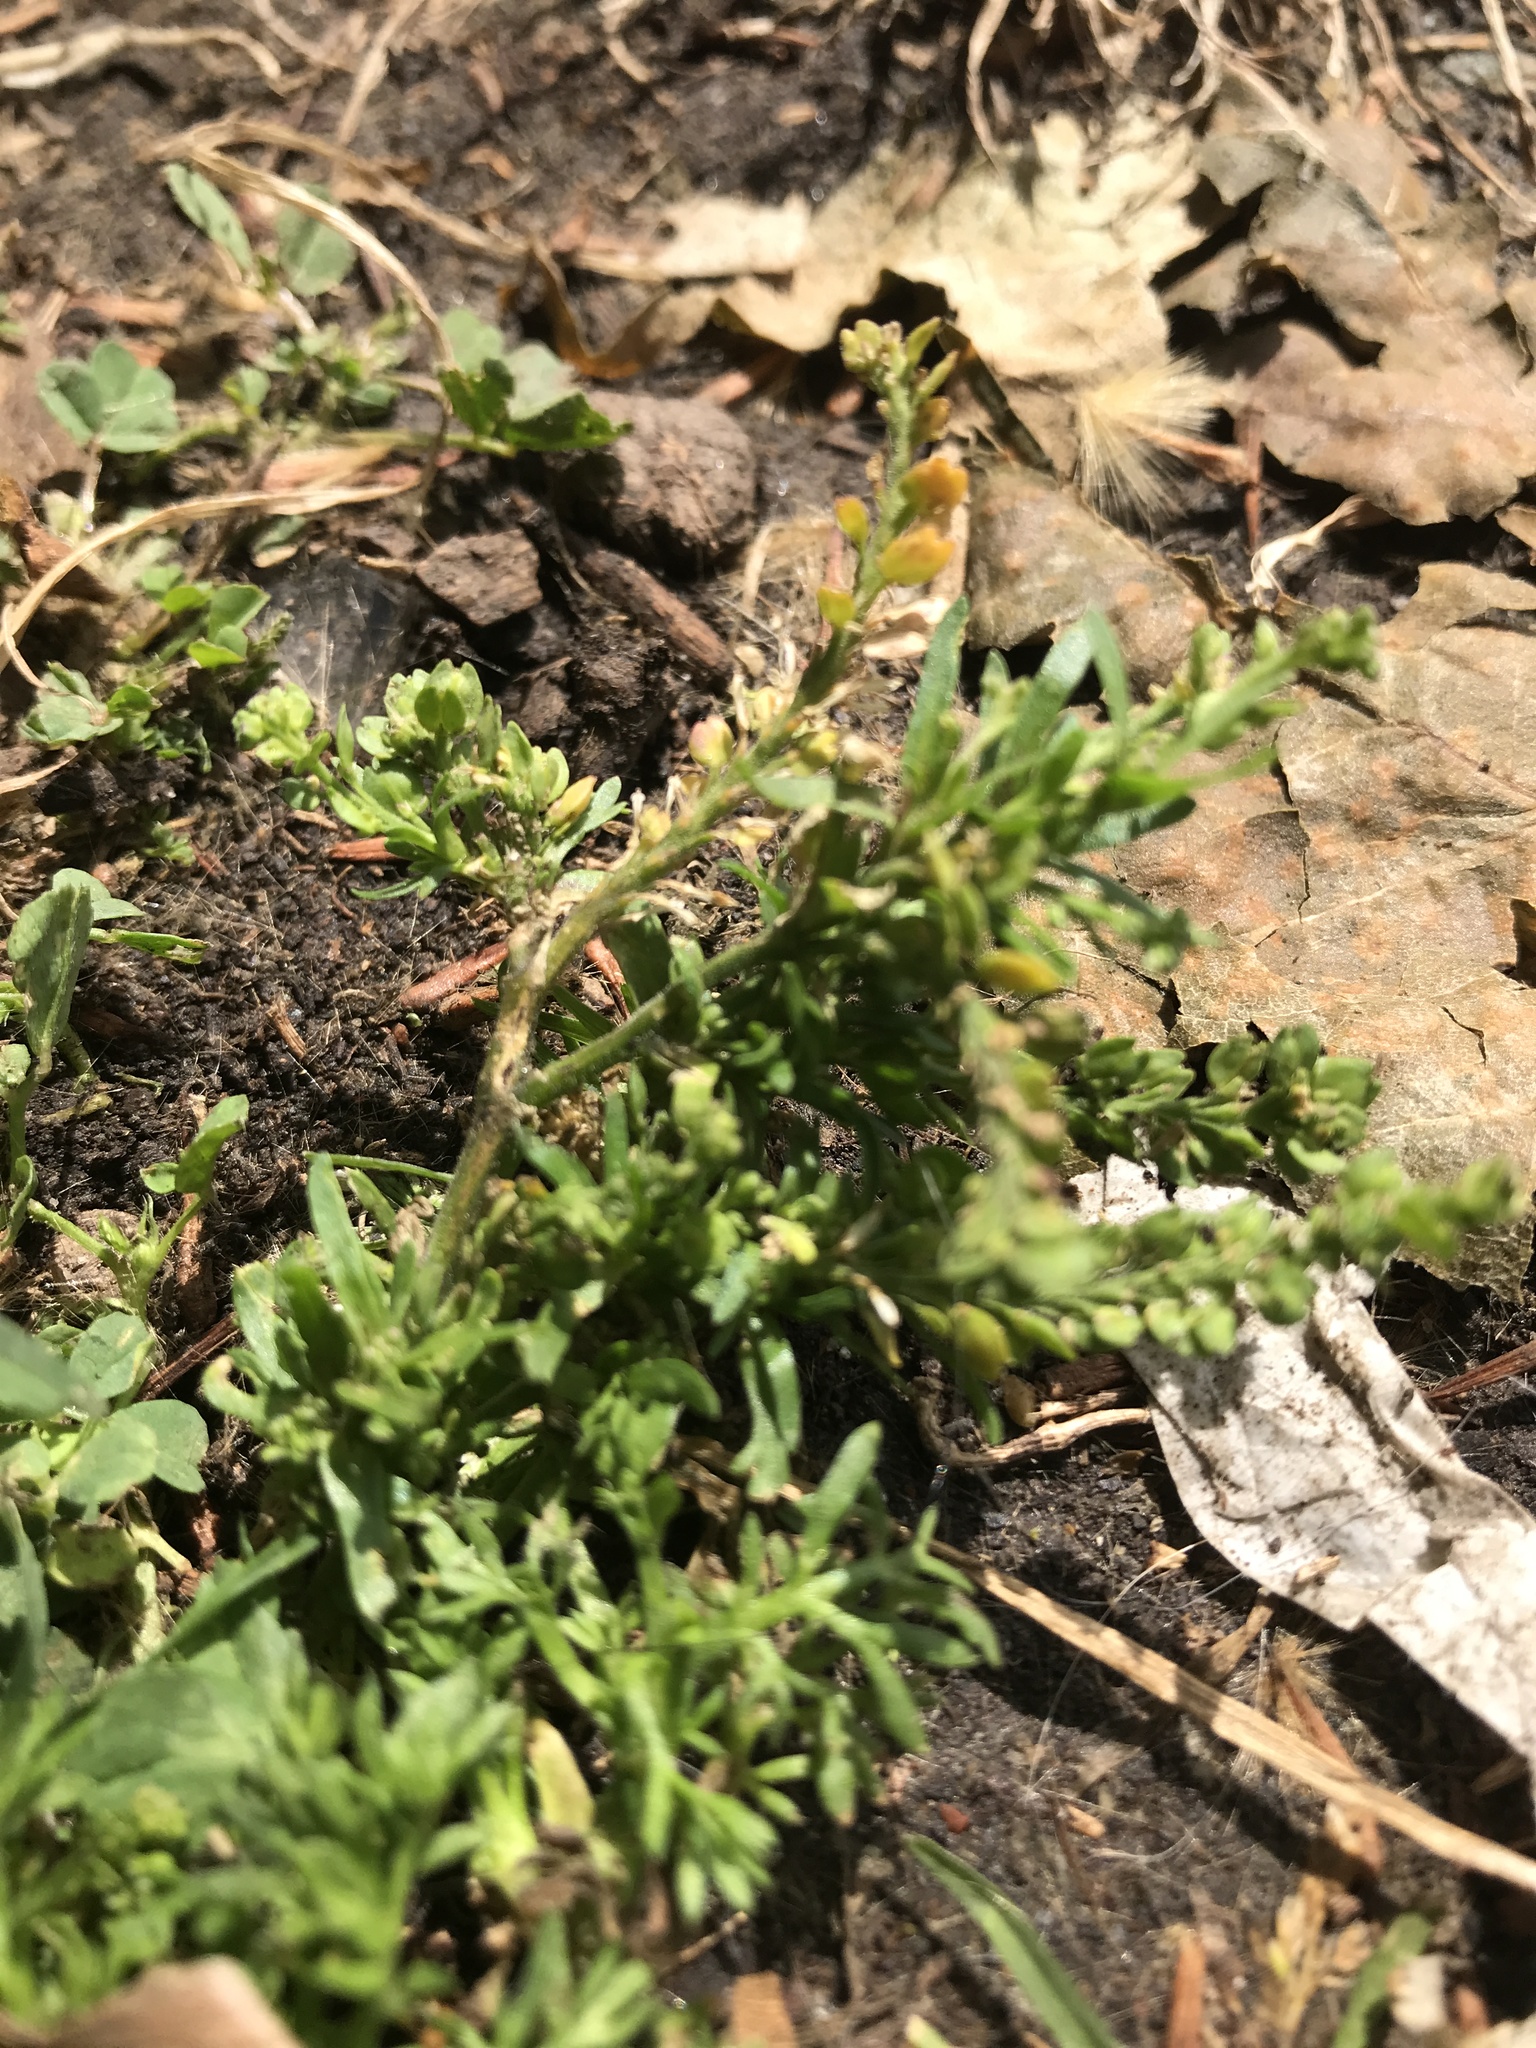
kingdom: Plantae
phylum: Tracheophyta
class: Magnoliopsida
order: Brassicales
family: Brassicaceae
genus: Lepidium
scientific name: Lepidium didymum
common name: Lesser swinecress
